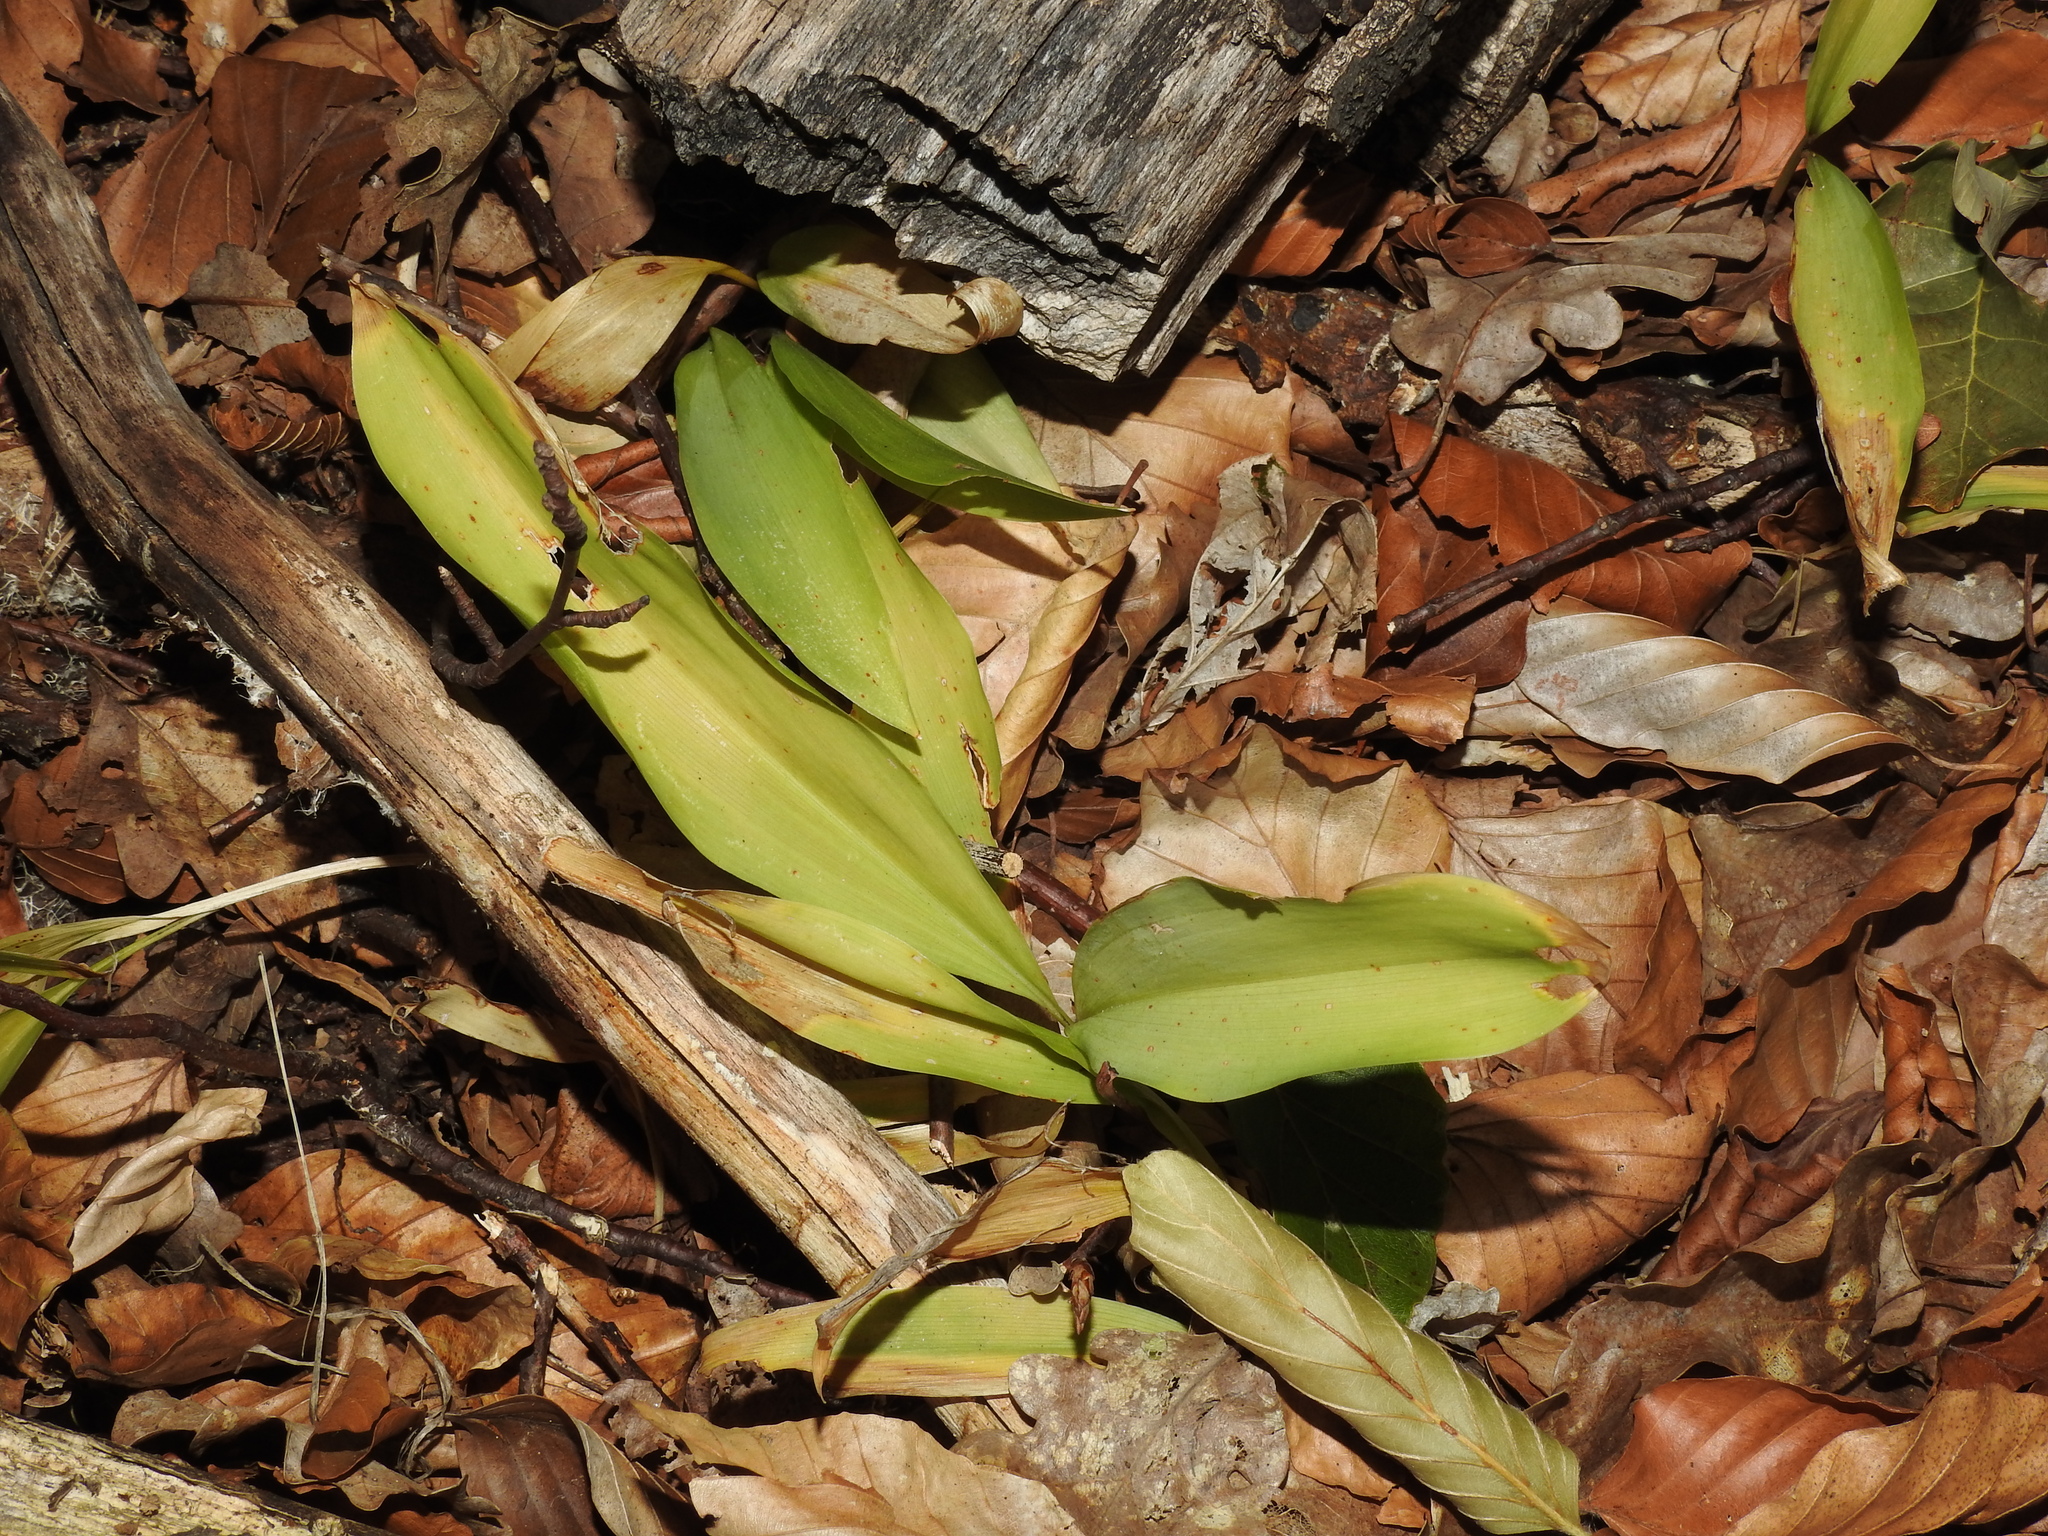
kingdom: Plantae
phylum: Tracheophyta
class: Liliopsida
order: Asparagales
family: Asparagaceae
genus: Convallaria
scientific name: Convallaria majalis
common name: Lily-of-the-valley
